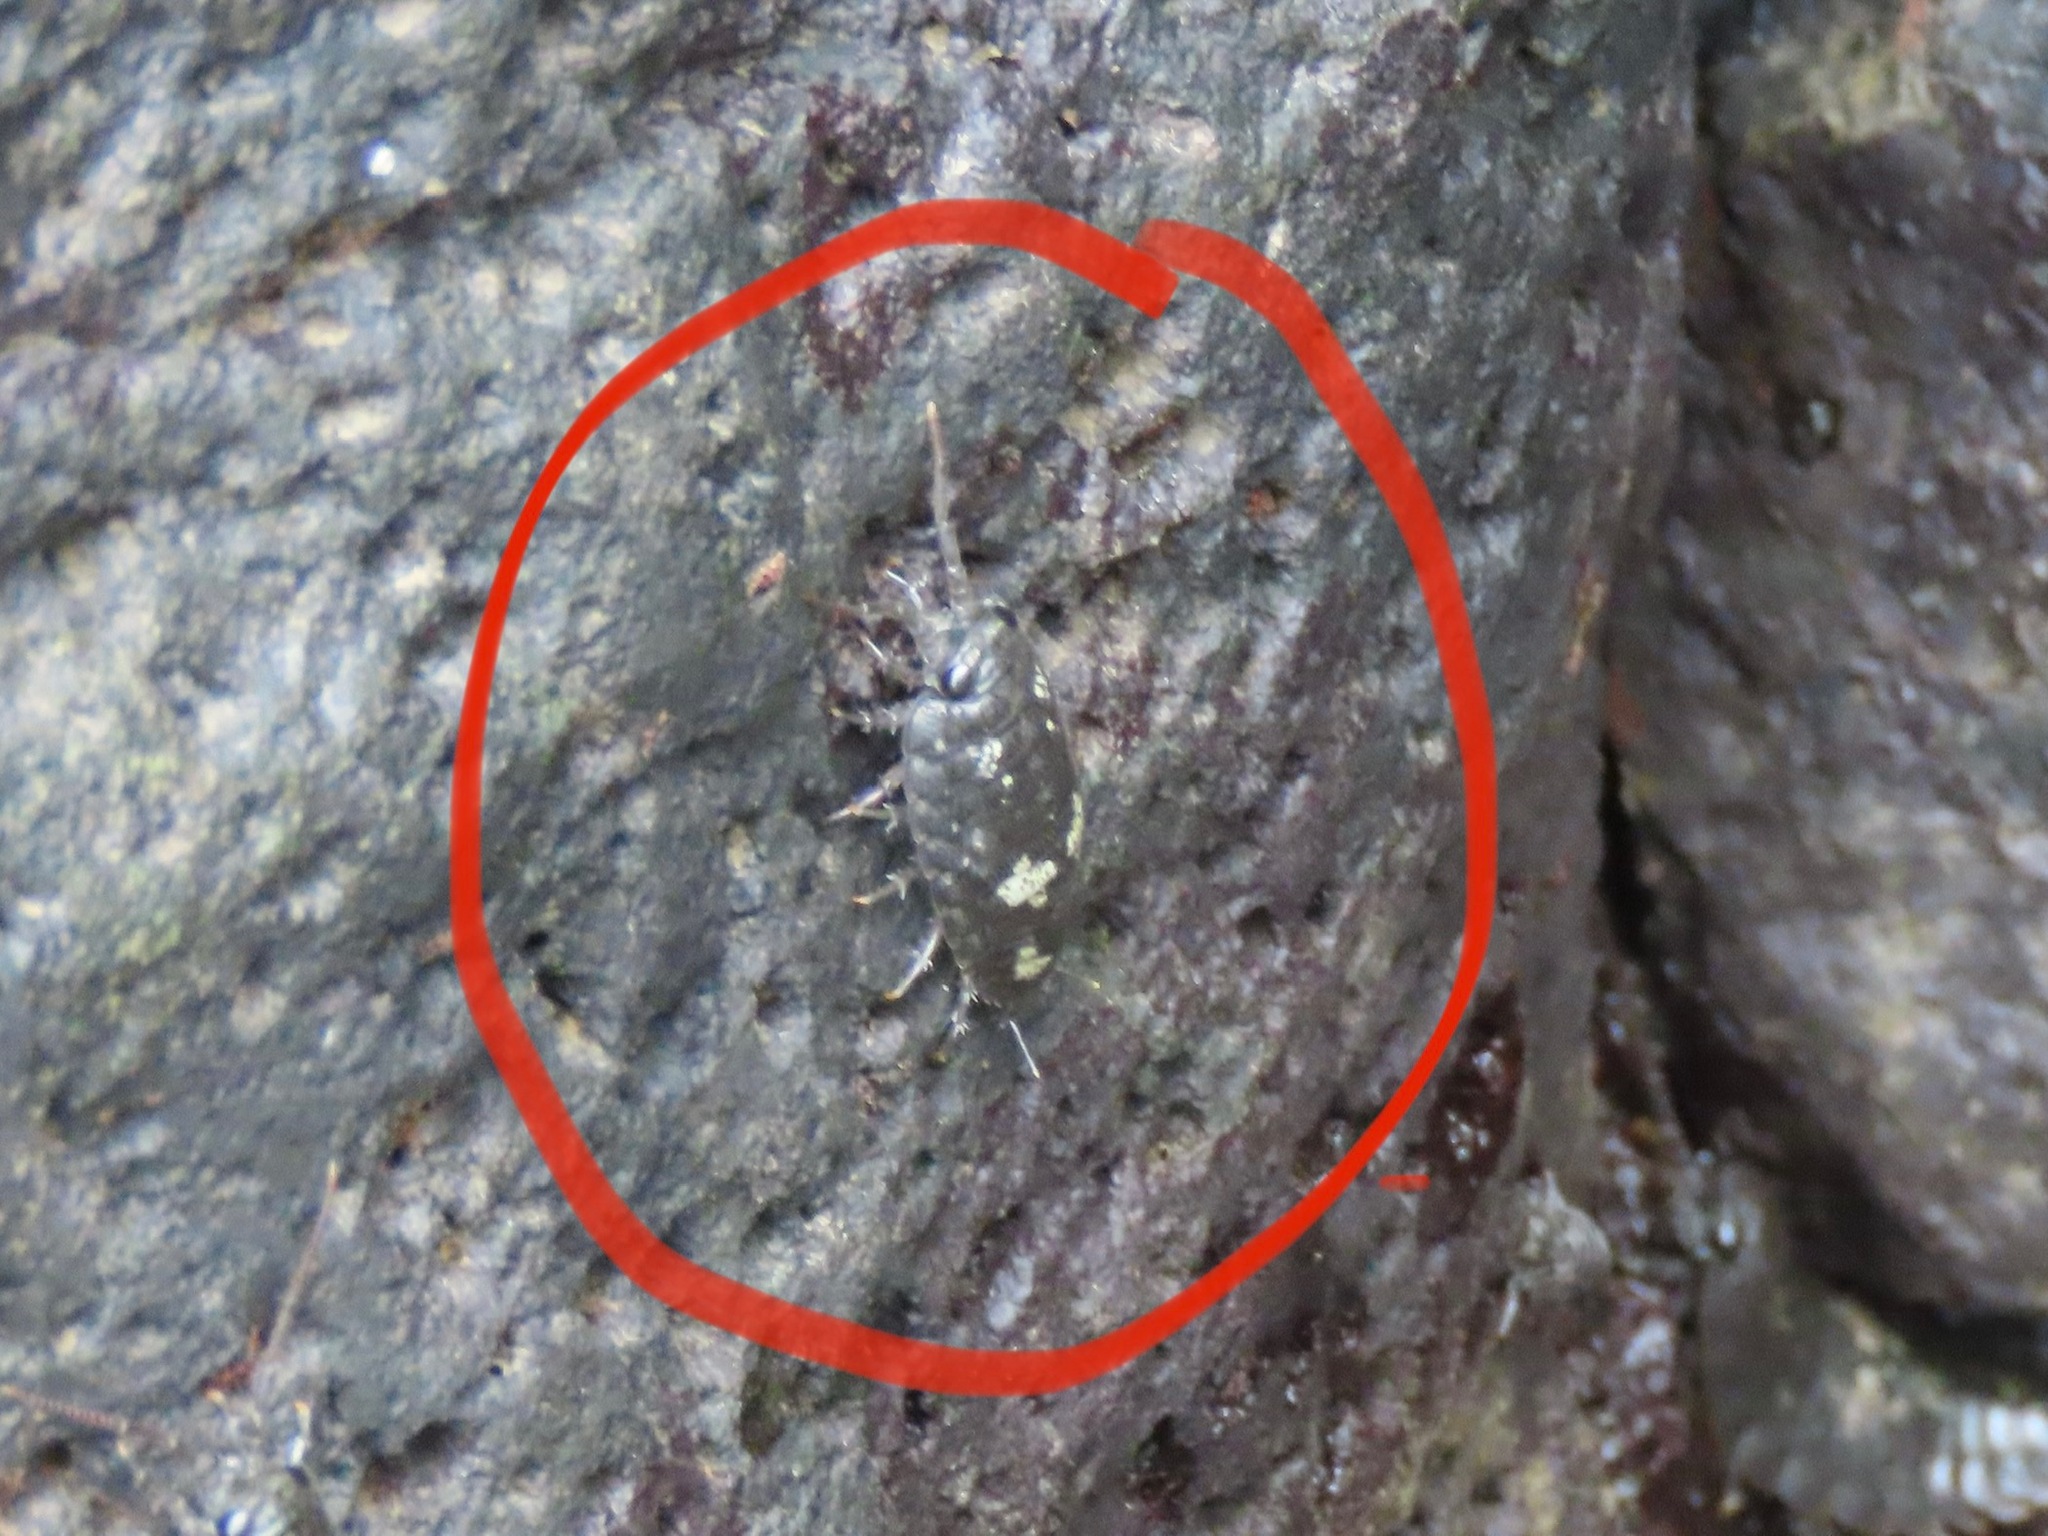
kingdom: Animalia
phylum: Arthropoda
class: Malacostraca
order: Isopoda
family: Ligiidae
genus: Ligia
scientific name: Ligia pallasii
